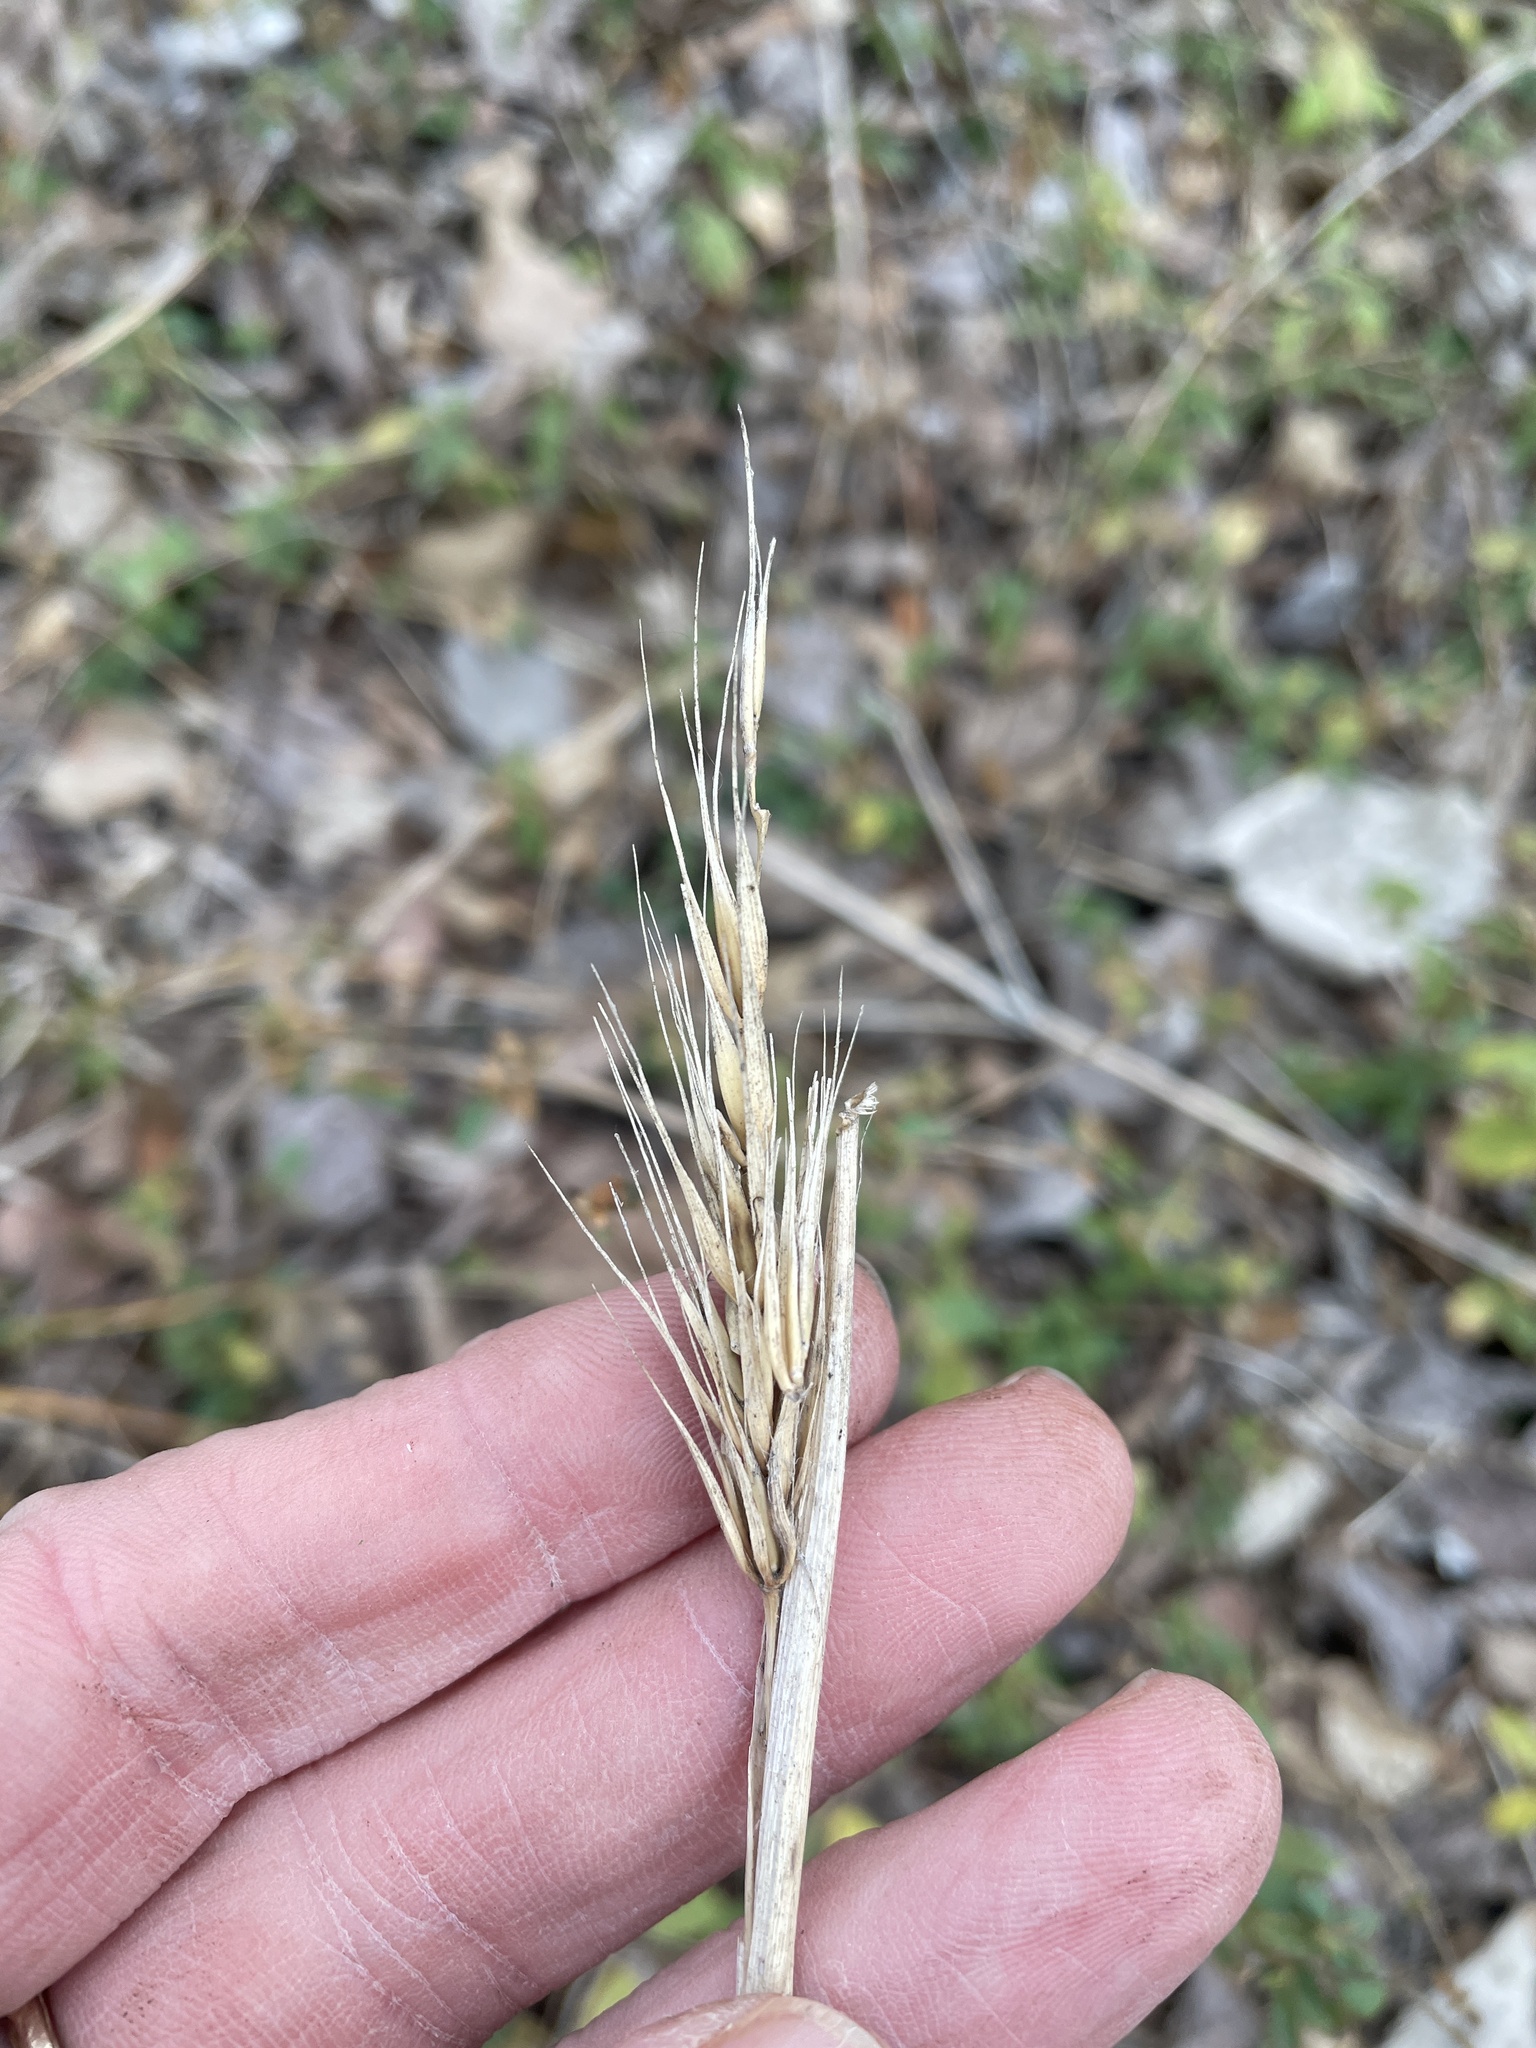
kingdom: Plantae
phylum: Tracheophyta
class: Liliopsida
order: Poales
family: Poaceae
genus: Elymus
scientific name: Elymus virginicus
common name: Common eastern wildrye
